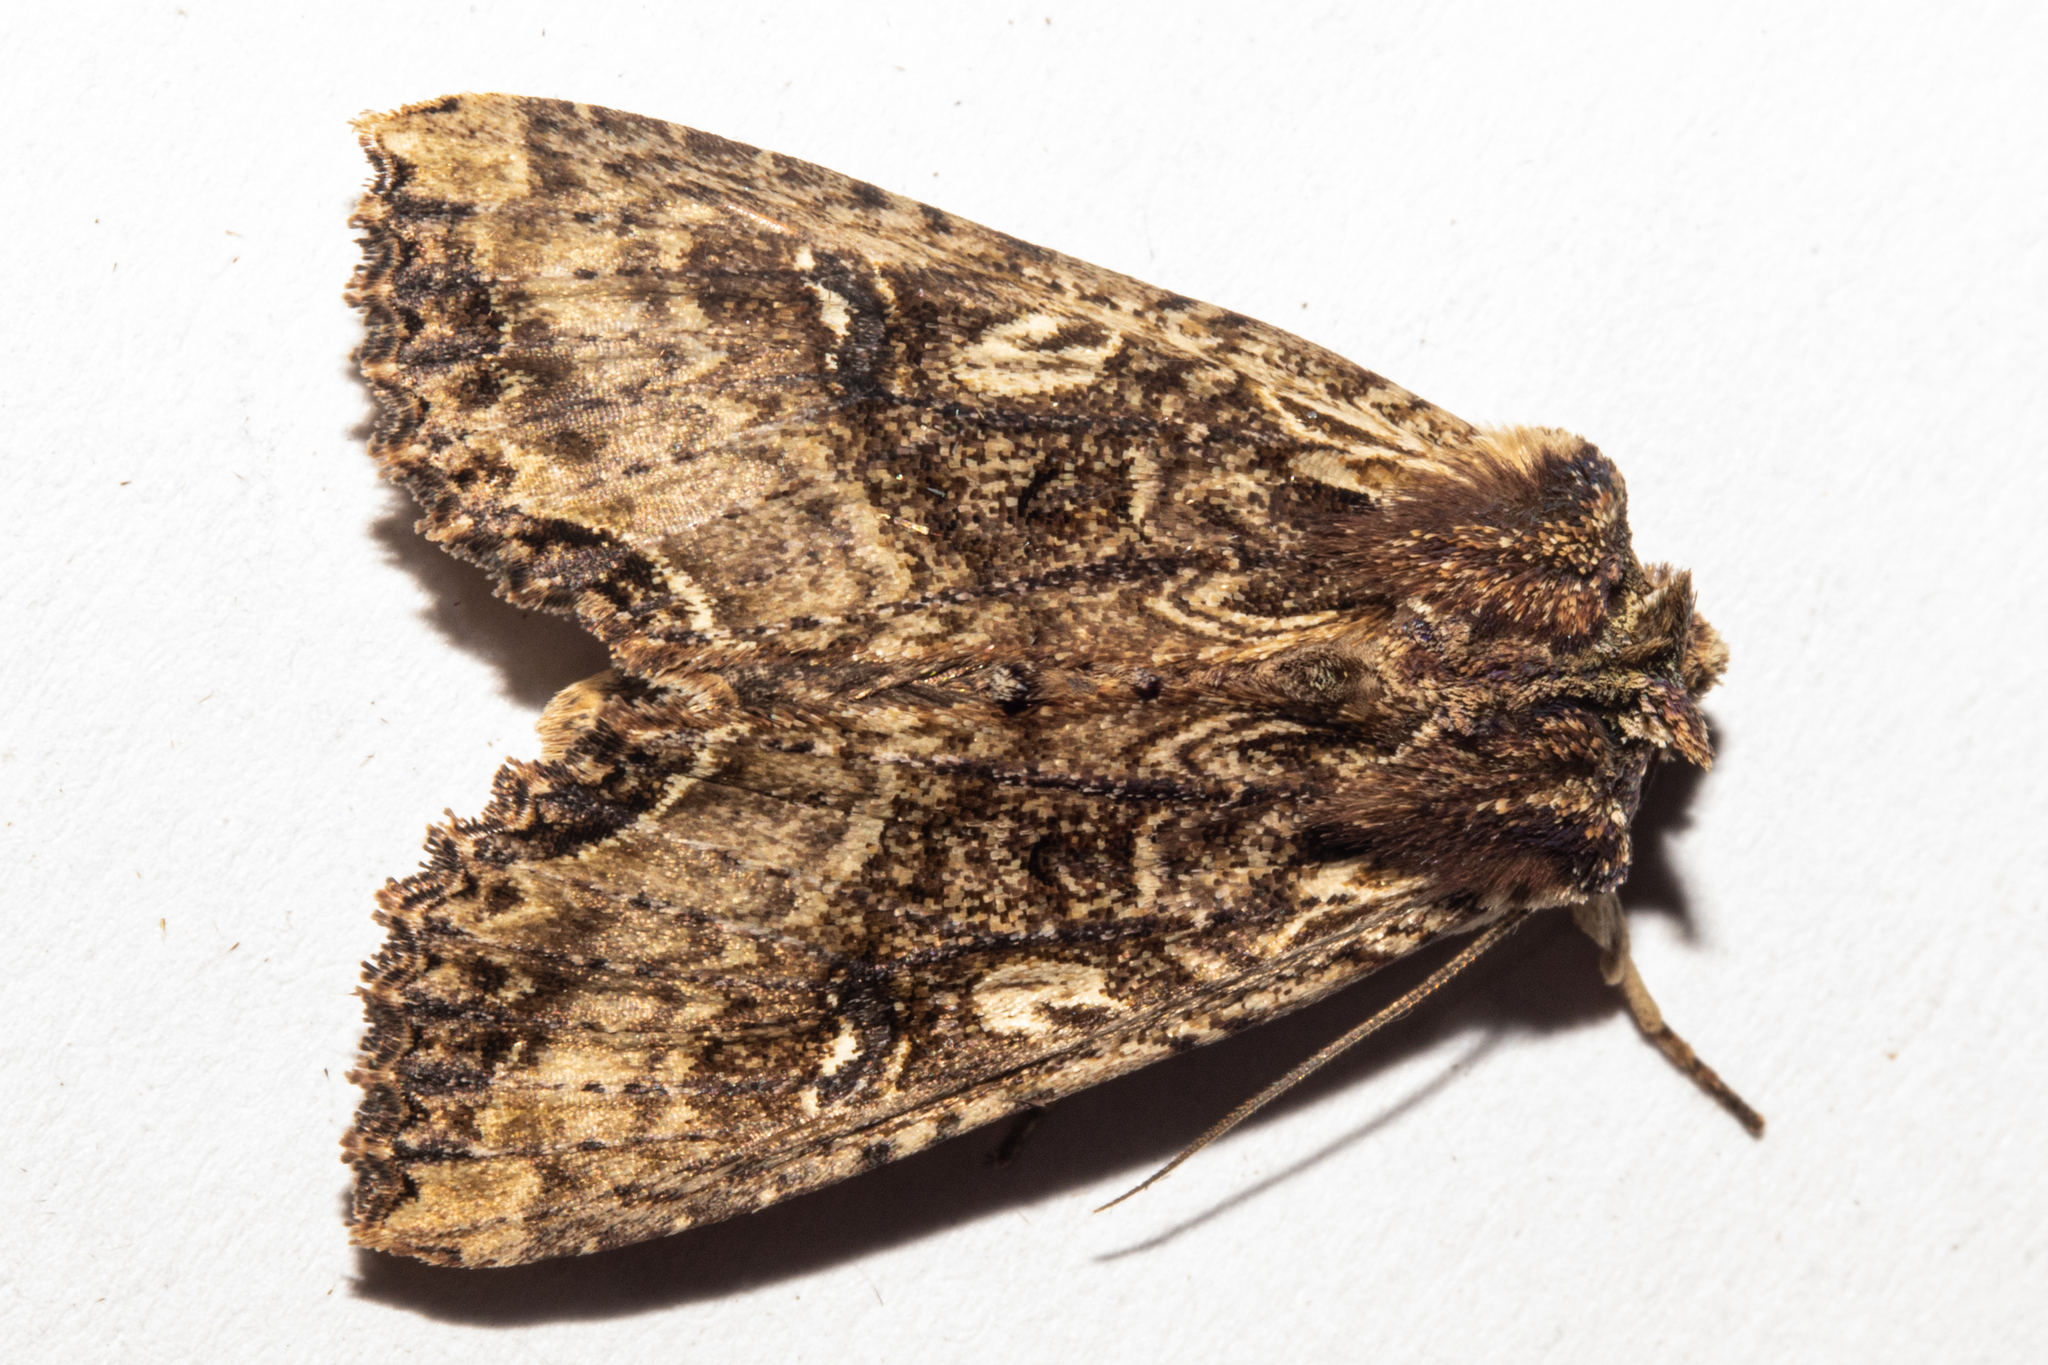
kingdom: Animalia
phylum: Arthropoda
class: Insecta
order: Lepidoptera
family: Noctuidae
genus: Meterana
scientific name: Meterana stipata
